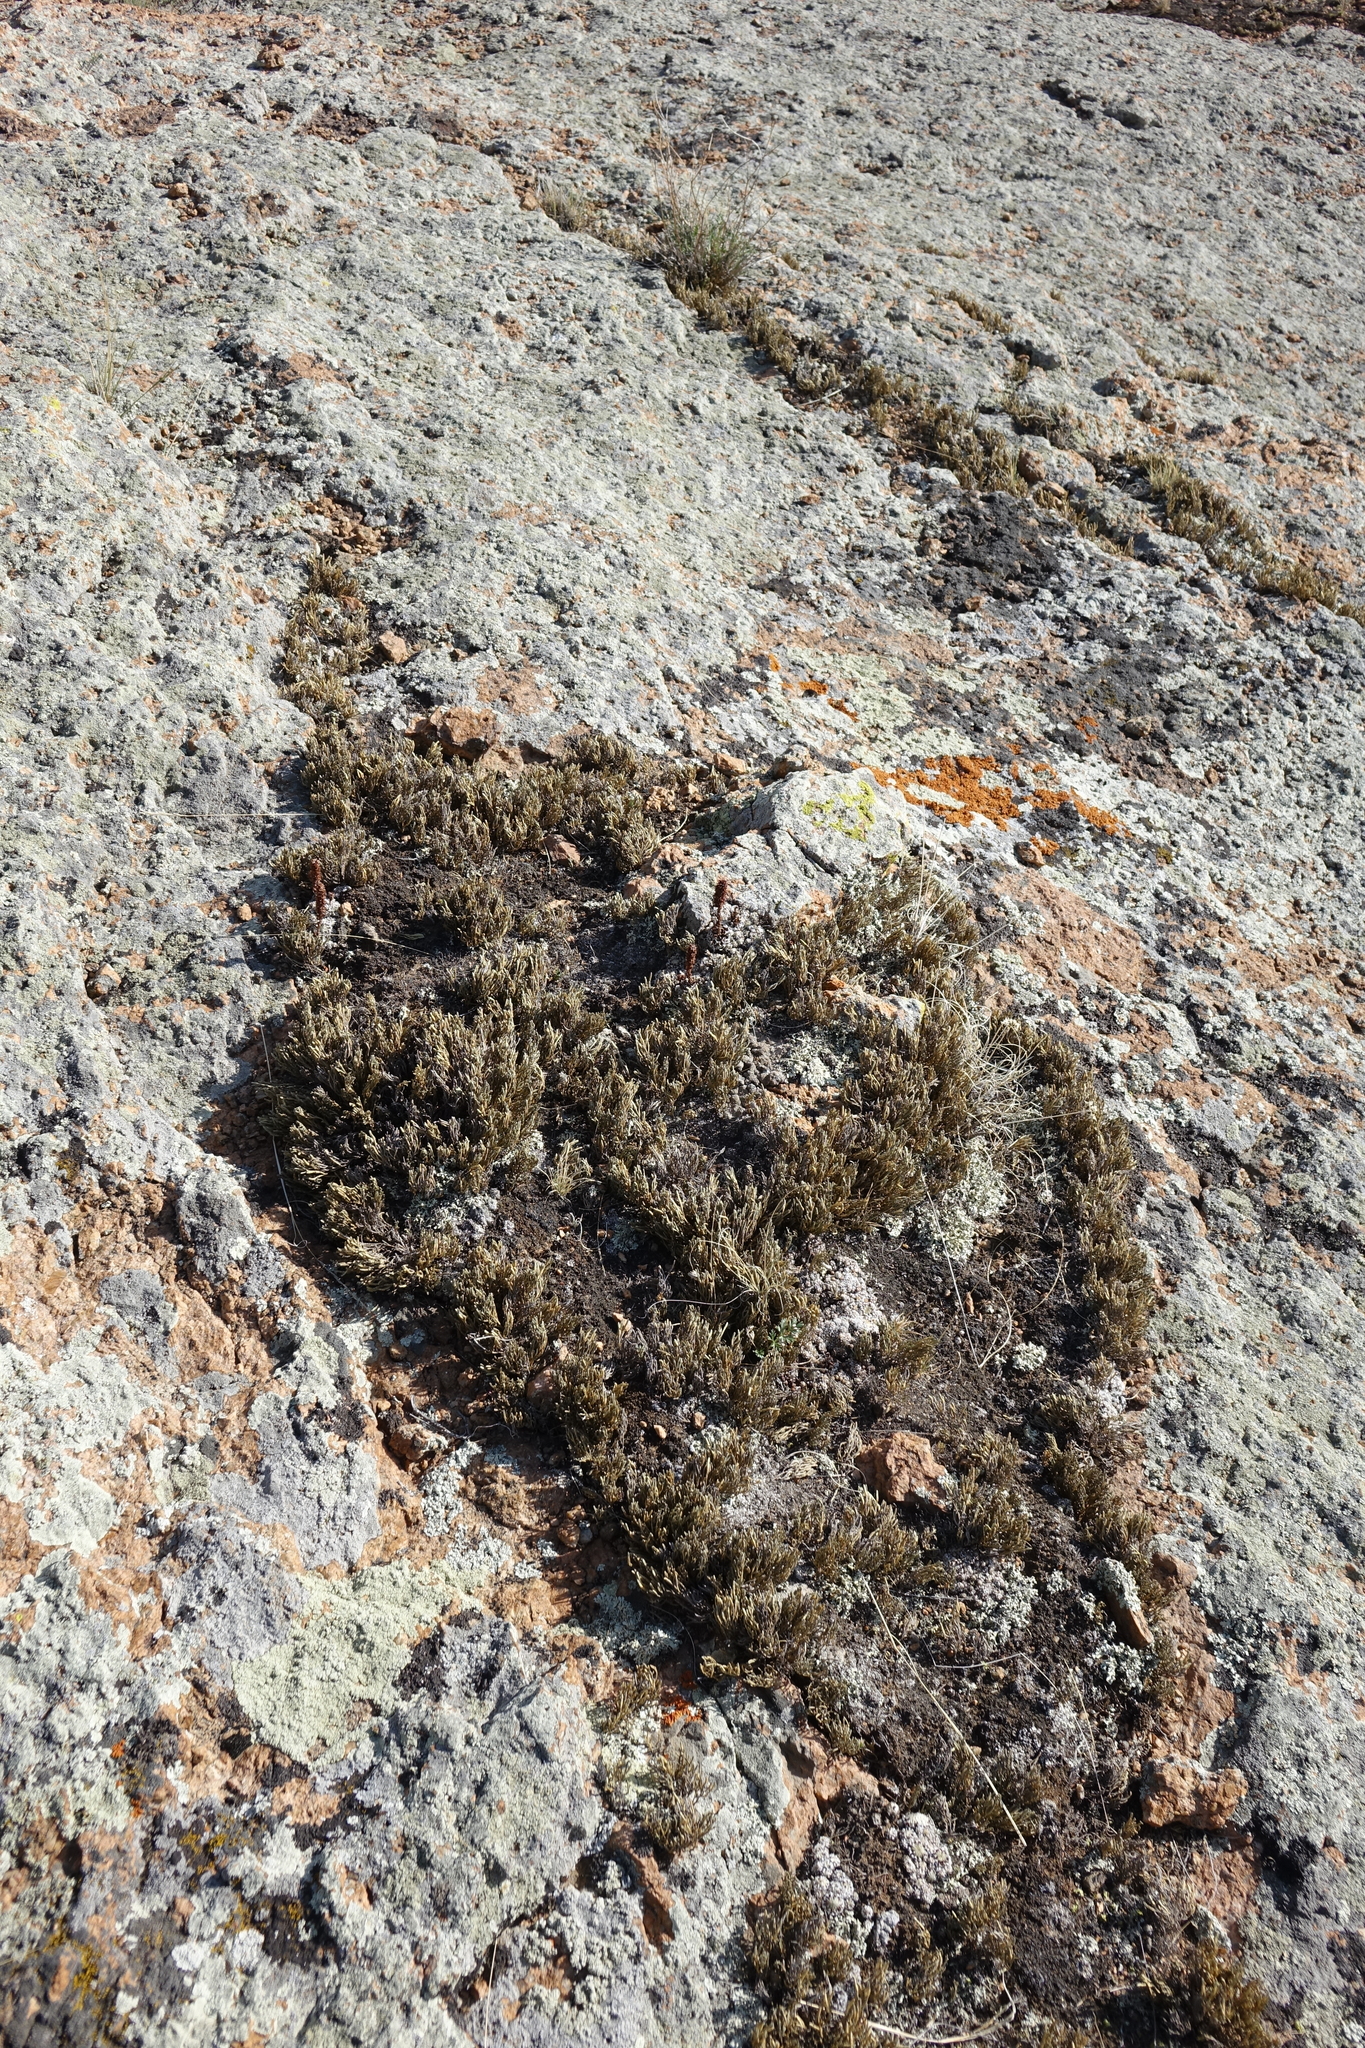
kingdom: Plantae
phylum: Tracheophyta
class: Lycopodiopsida
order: Selaginellales
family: Selaginellaceae
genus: Selaginella
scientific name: Selaginella sanguinolenta
